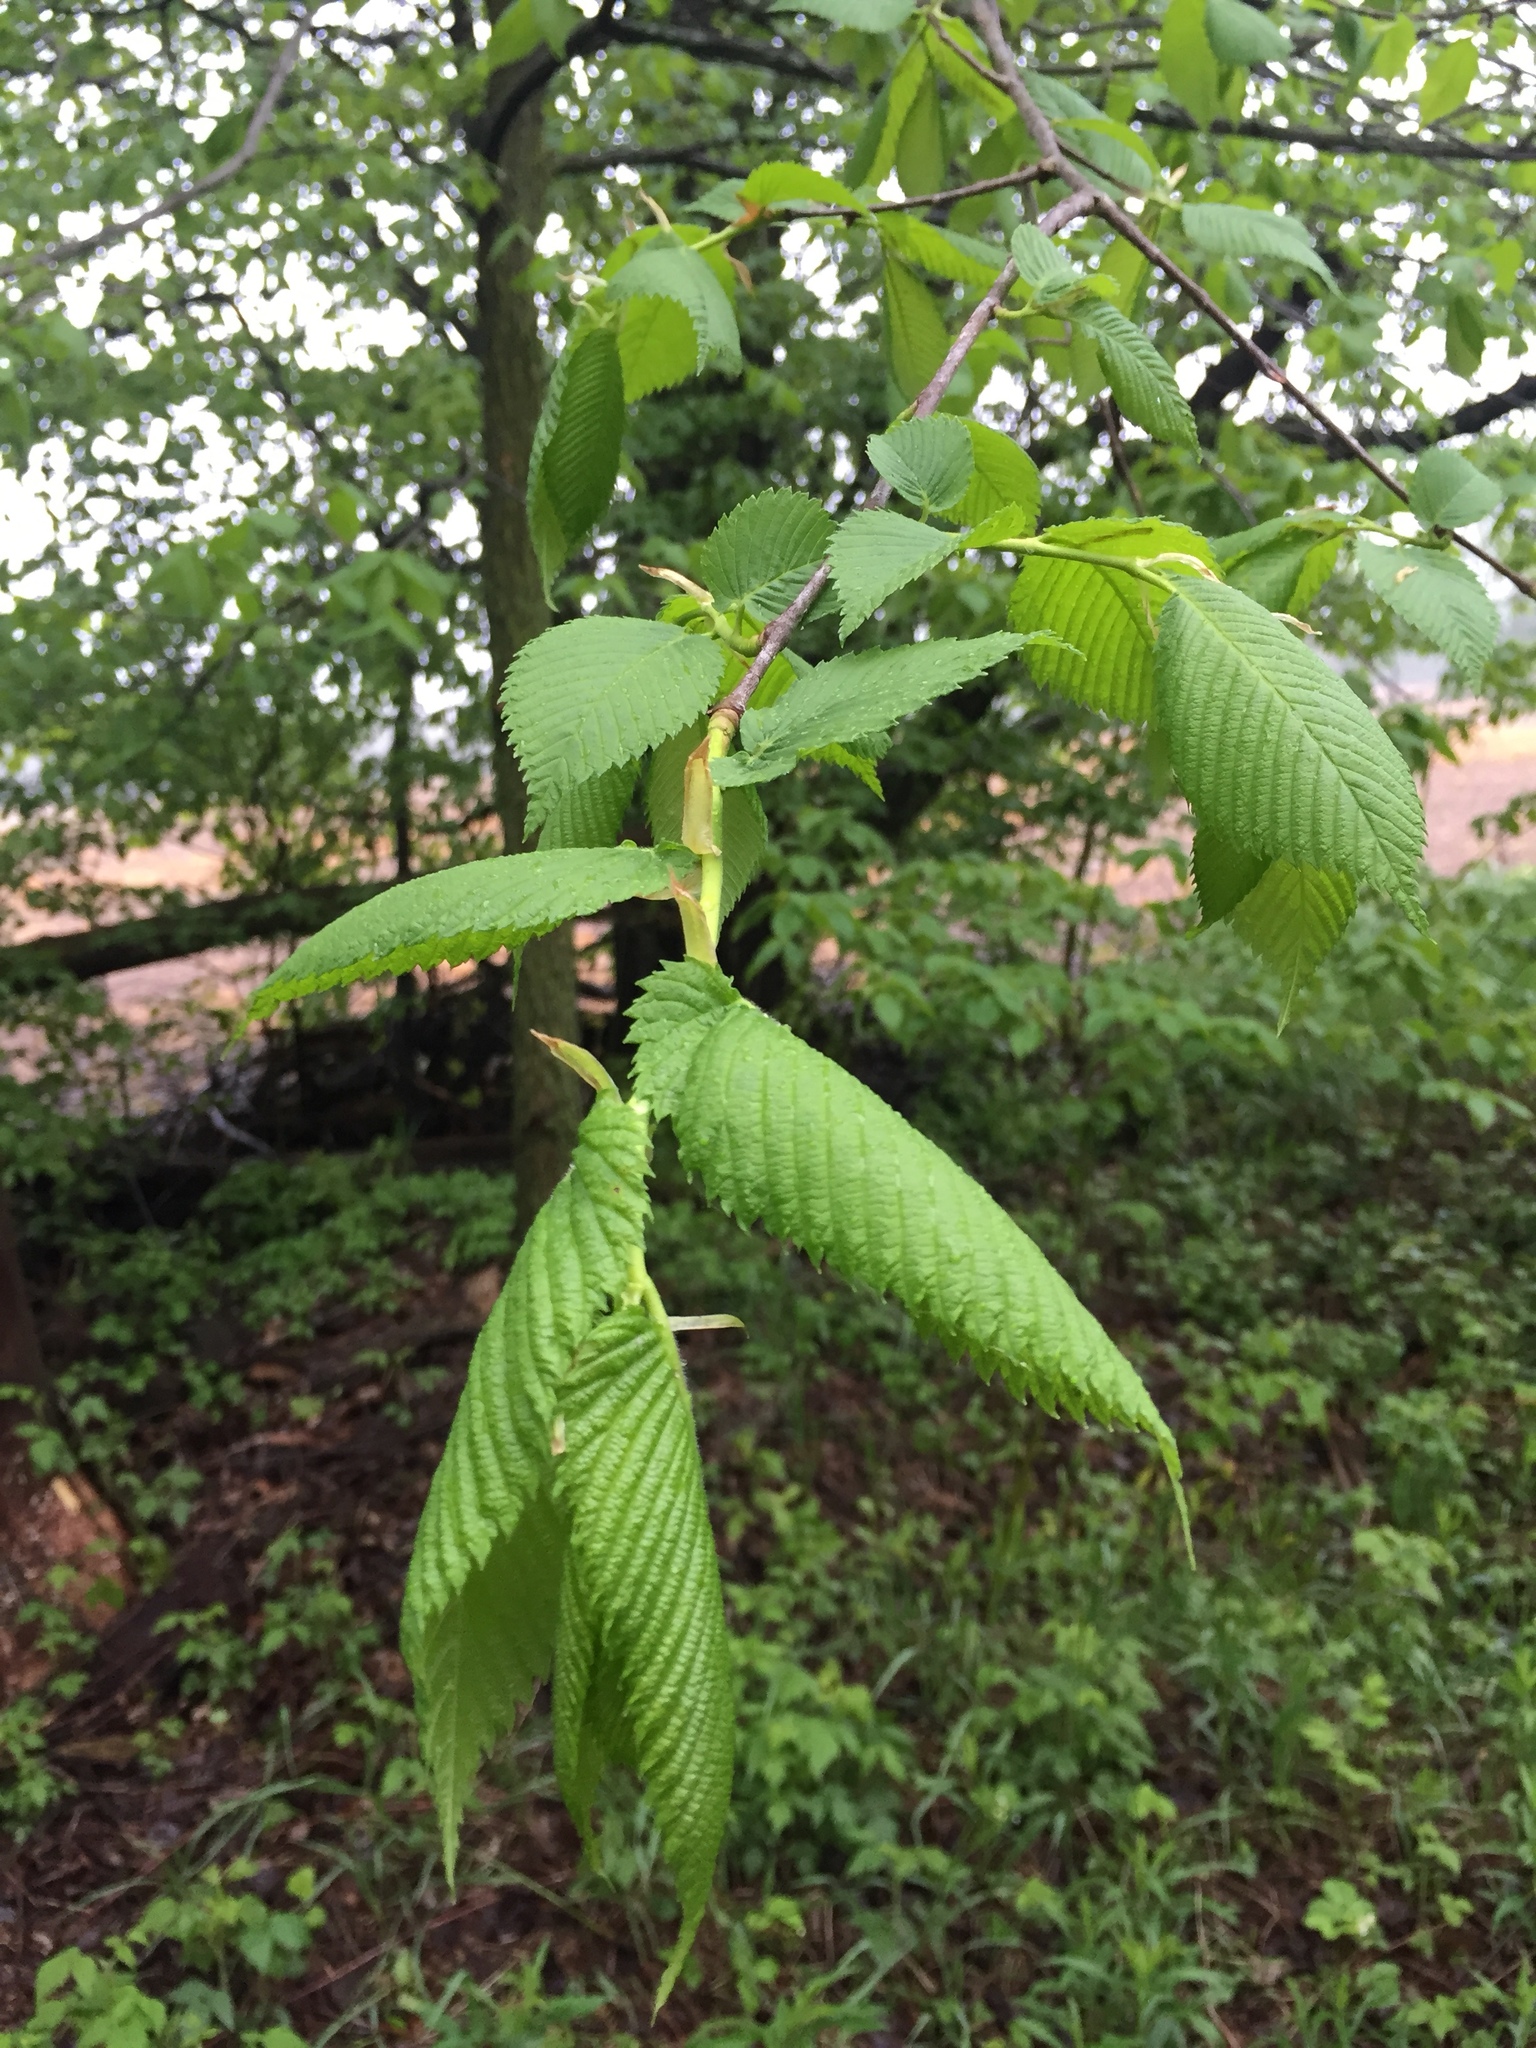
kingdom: Plantae
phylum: Tracheophyta
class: Magnoliopsida
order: Rosales
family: Ulmaceae
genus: Ulmus
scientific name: Ulmus americana
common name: American elm
